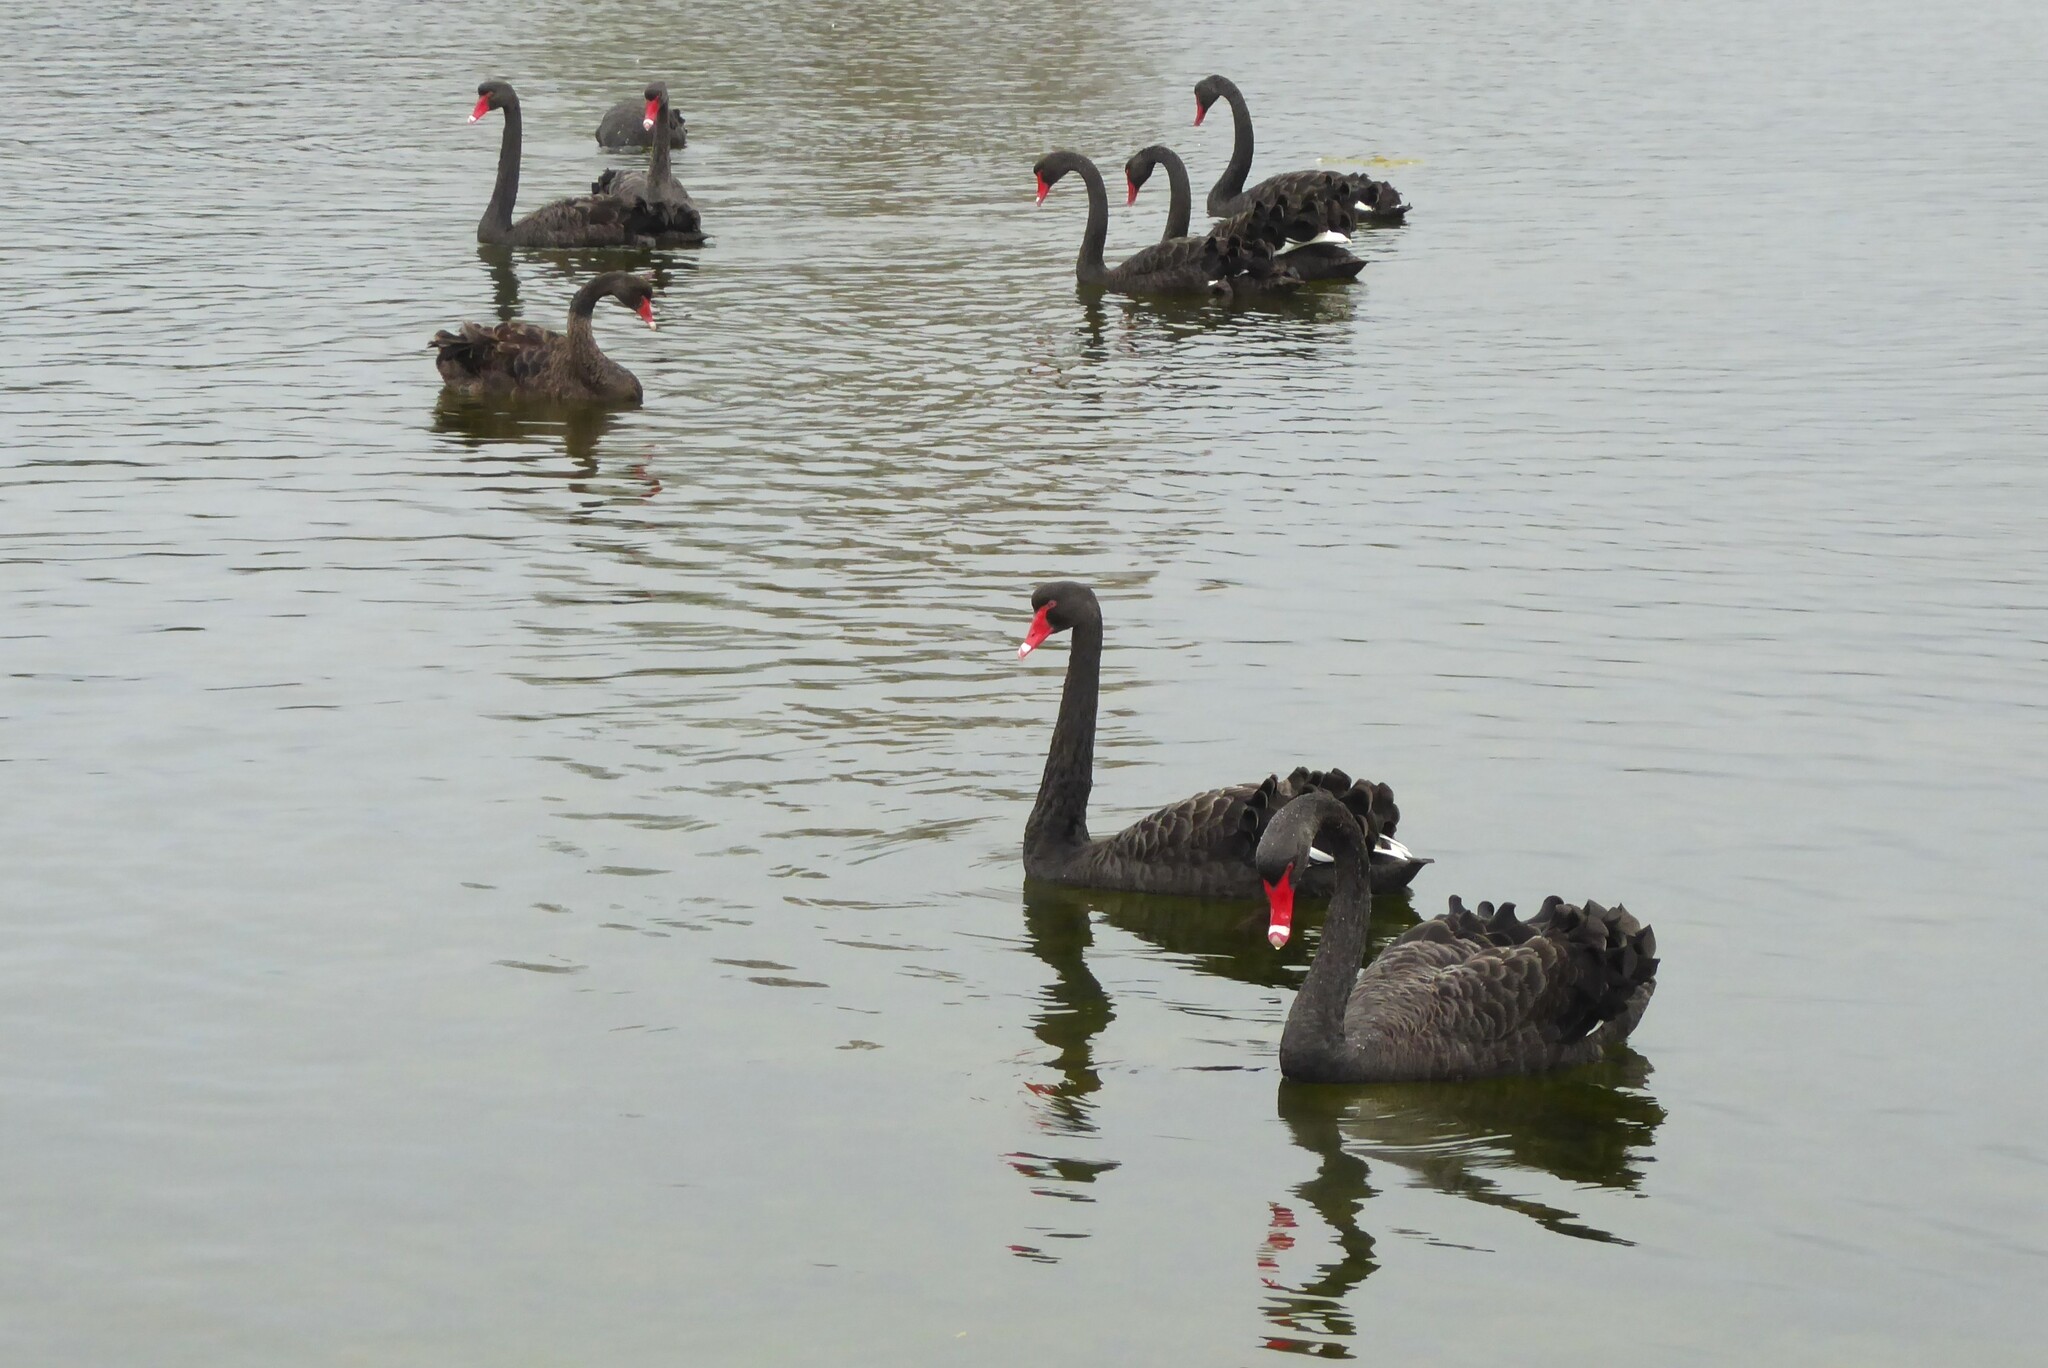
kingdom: Animalia
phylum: Chordata
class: Aves
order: Anseriformes
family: Anatidae
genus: Cygnus
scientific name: Cygnus atratus
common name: Black swan
